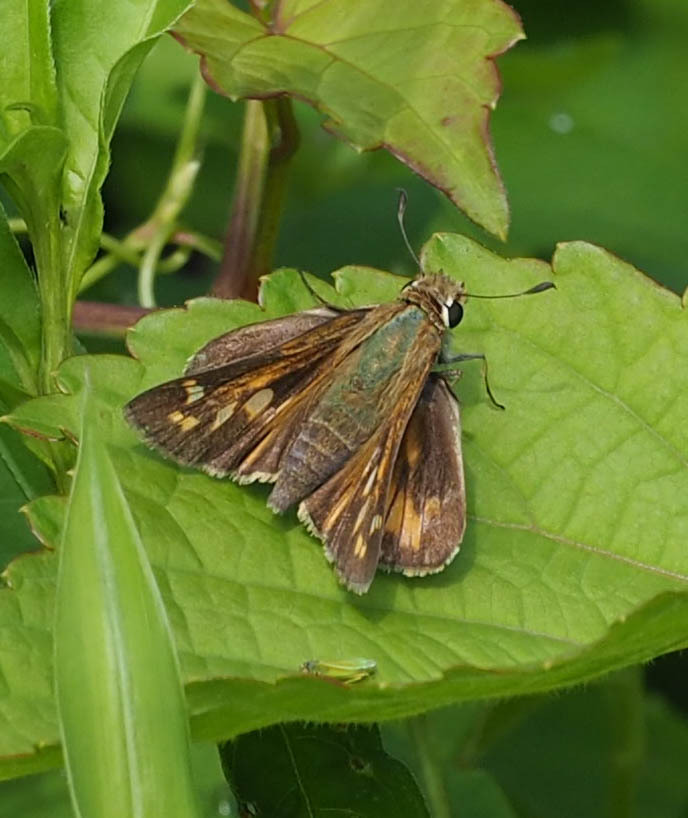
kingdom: Animalia
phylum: Arthropoda
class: Insecta
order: Lepidoptera
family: Hesperiidae
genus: Atalopedes
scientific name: Atalopedes
